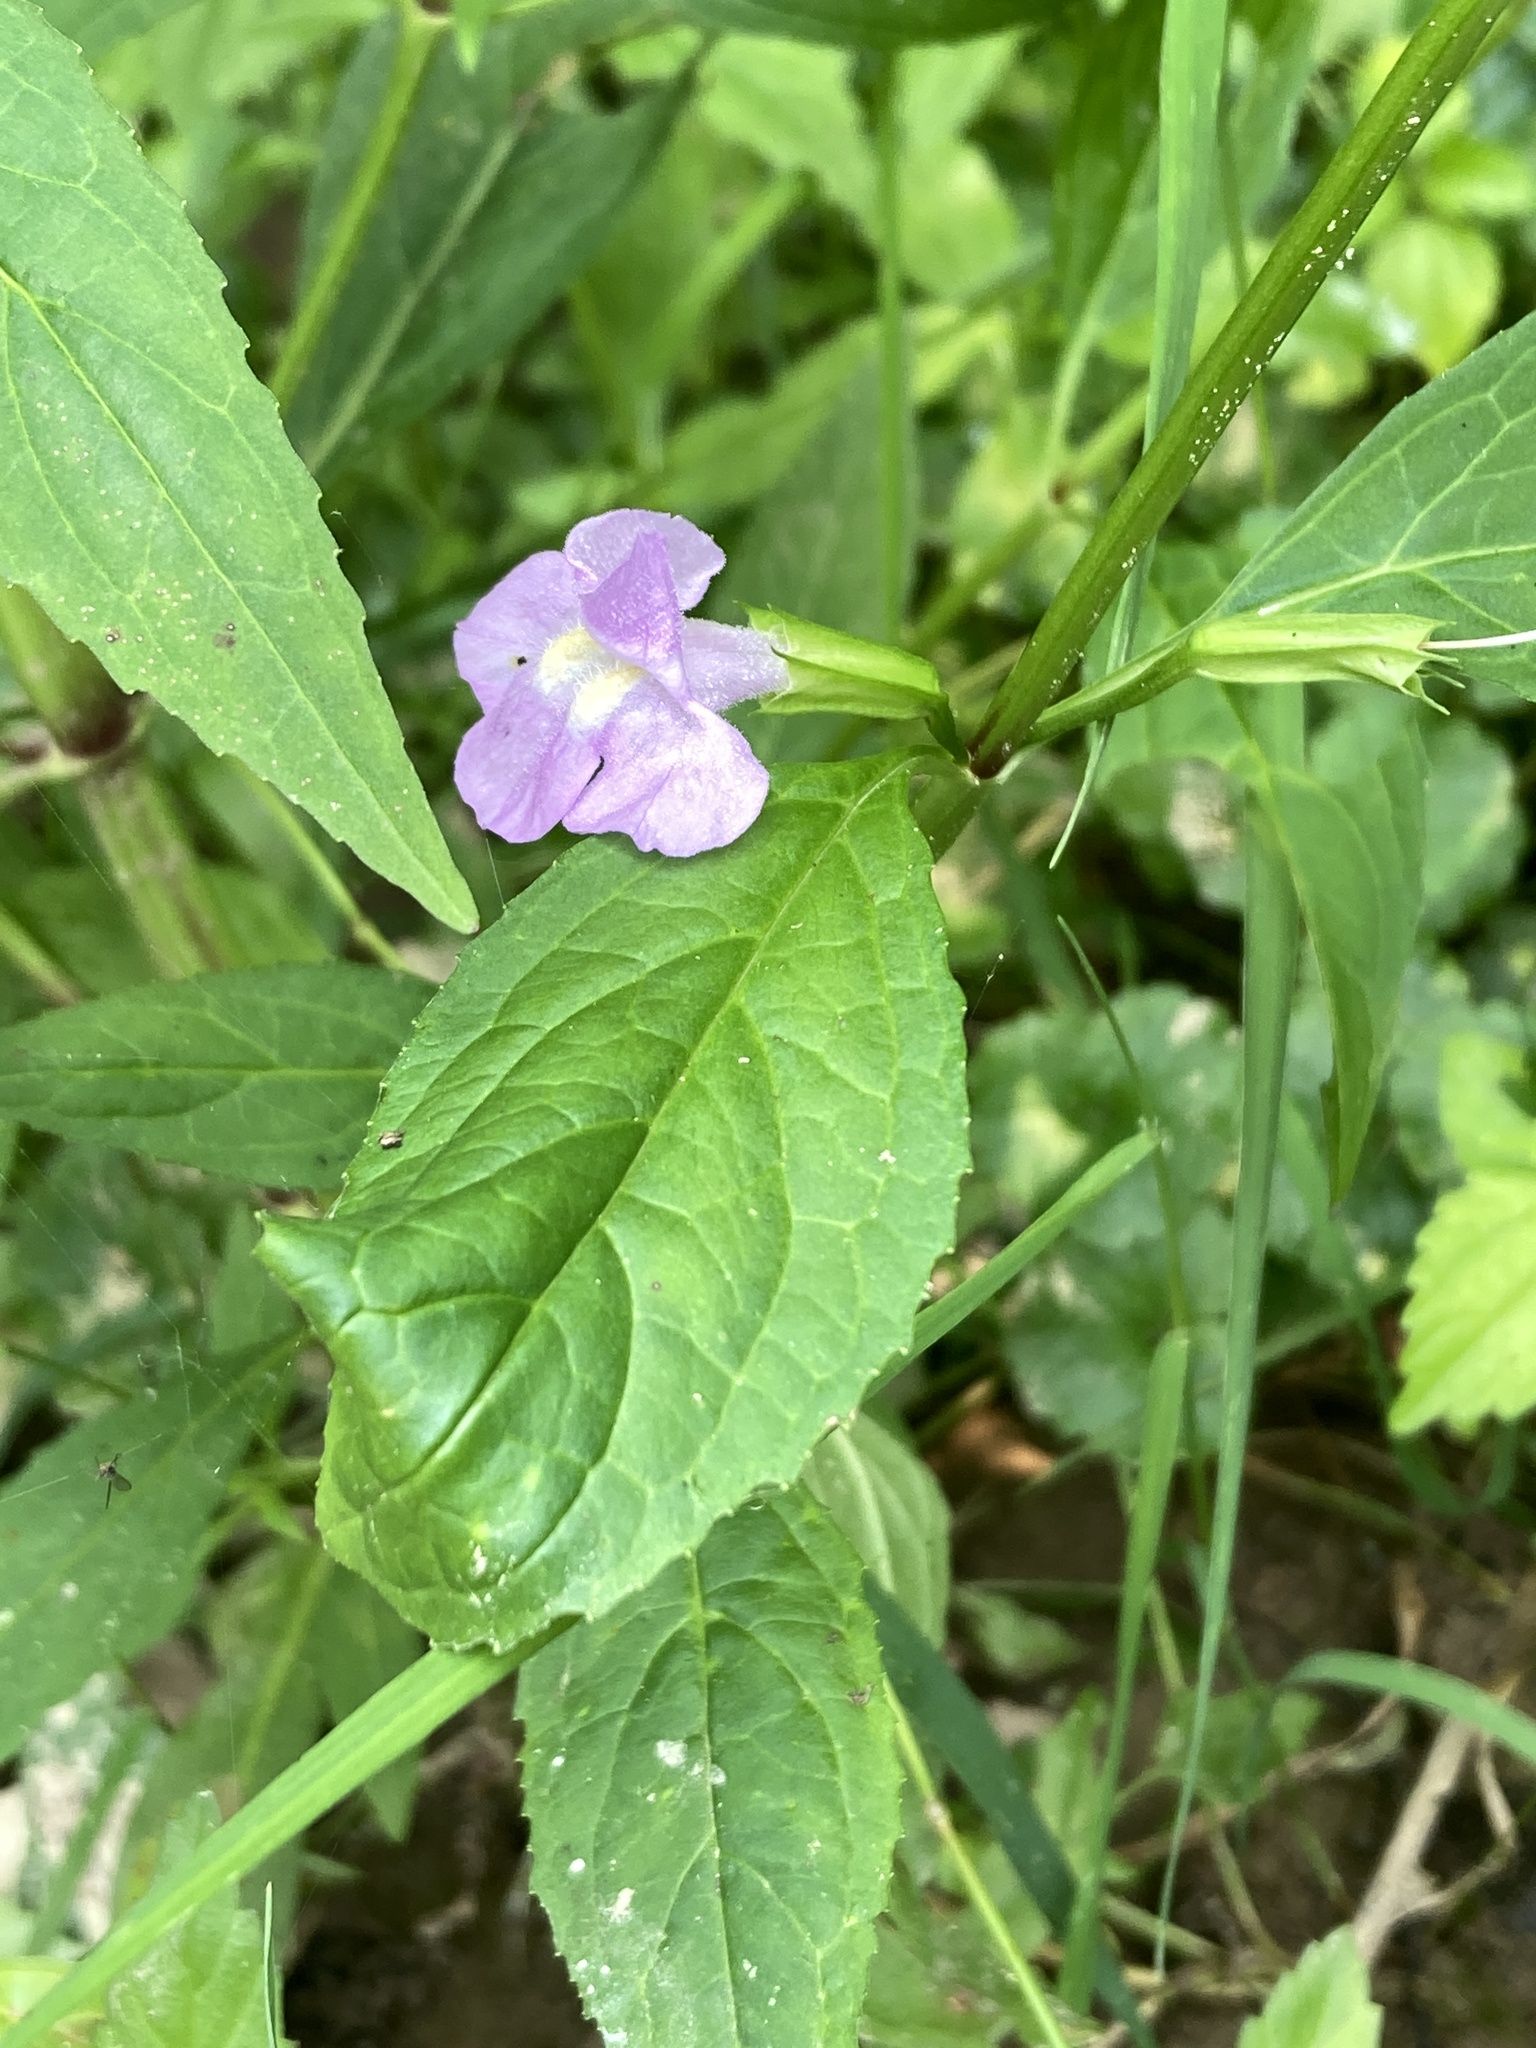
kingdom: Plantae
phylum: Tracheophyta
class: Magnoliopsida
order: Lamiales
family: Phrymaceae
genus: Mimulus
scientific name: Mimulus alatus
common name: Sharp-wing monkey-flower
